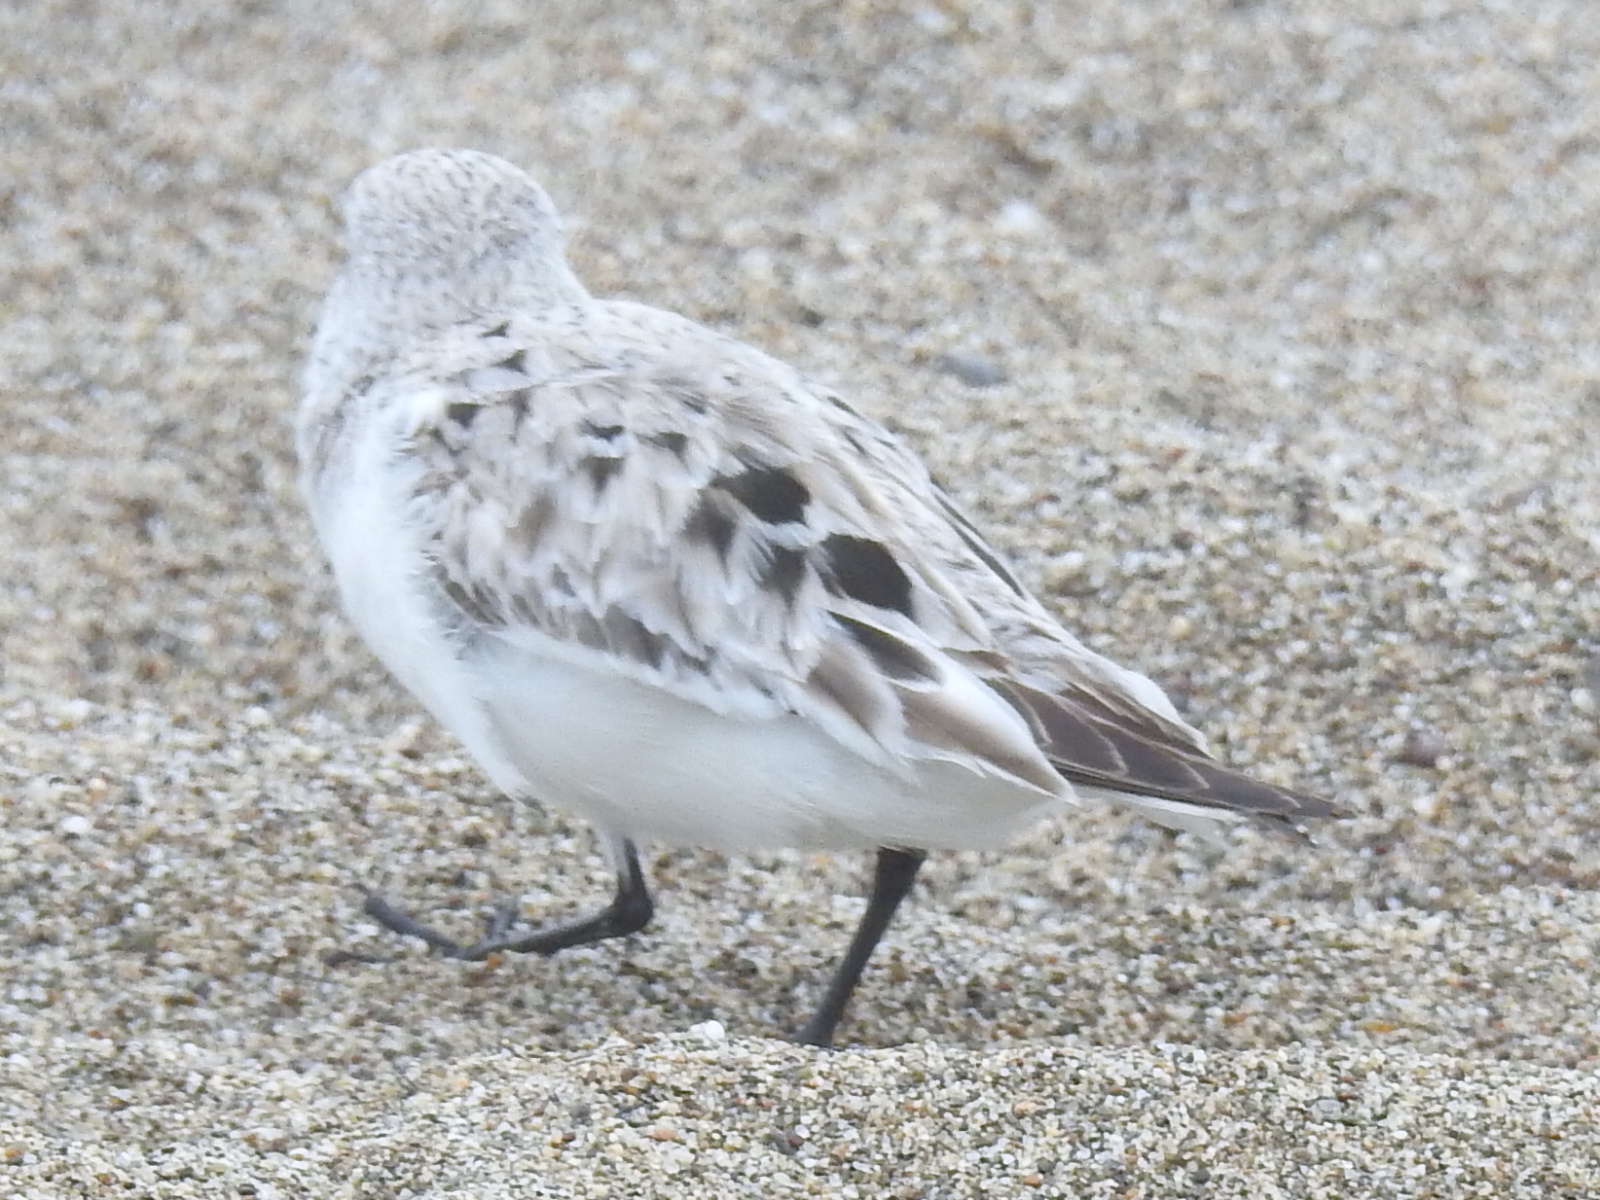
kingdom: Animalia
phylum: Chordata
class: Aves
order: Charadriiformes
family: Scolopacidae
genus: Calidris
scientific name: Calidris alba
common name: Sanderling
